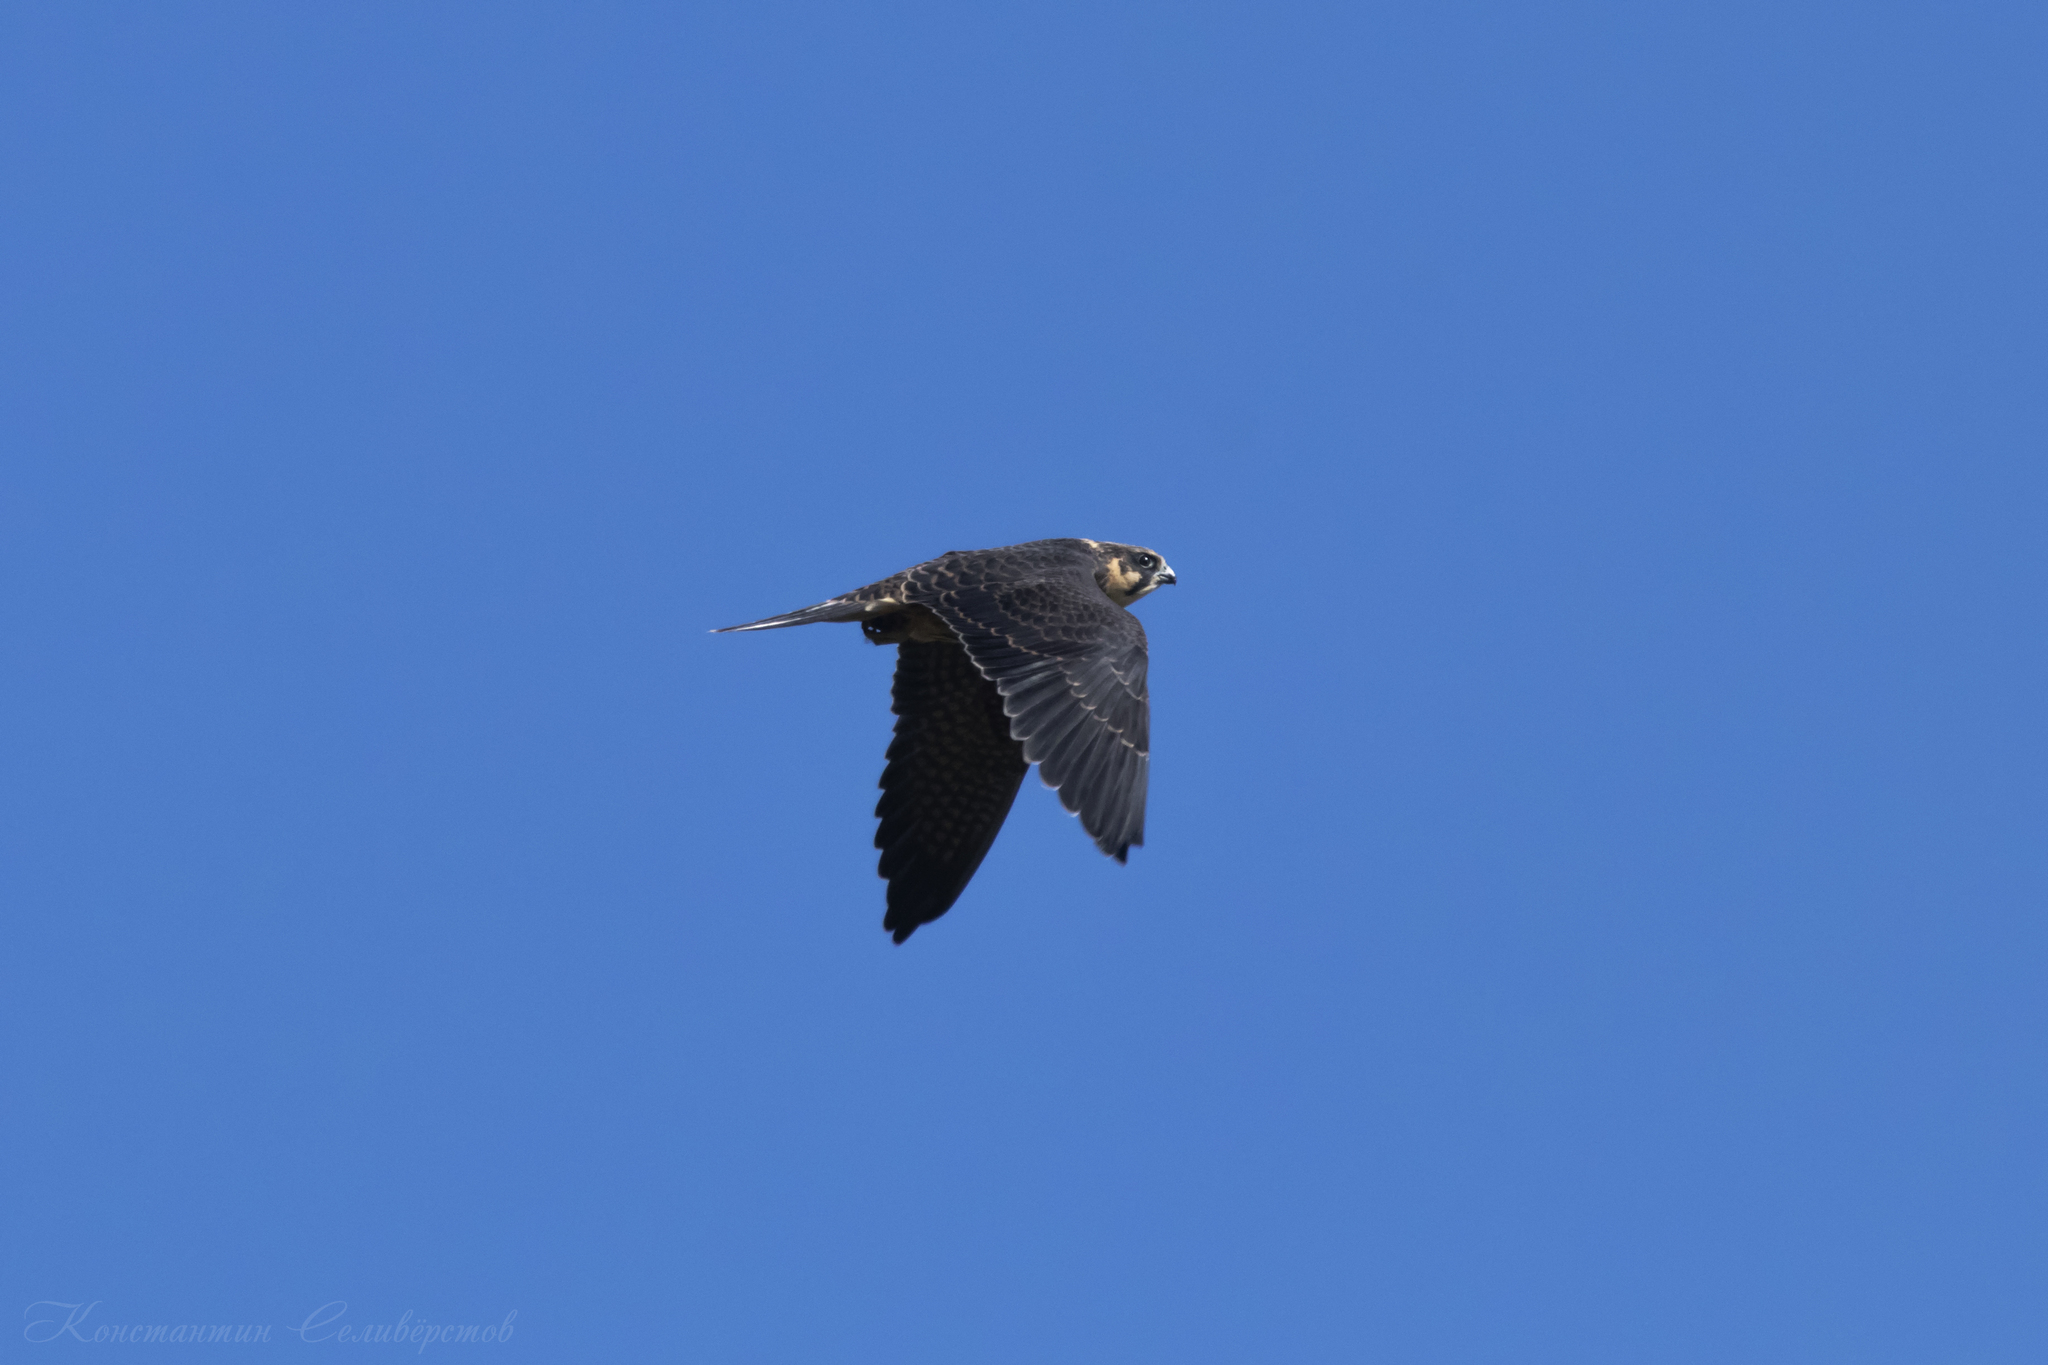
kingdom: Animalia
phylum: Chordata
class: Aves
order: Falconiformes
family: Falconidae
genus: Falco
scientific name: Falco subbuteo
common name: Eurasian hobby
